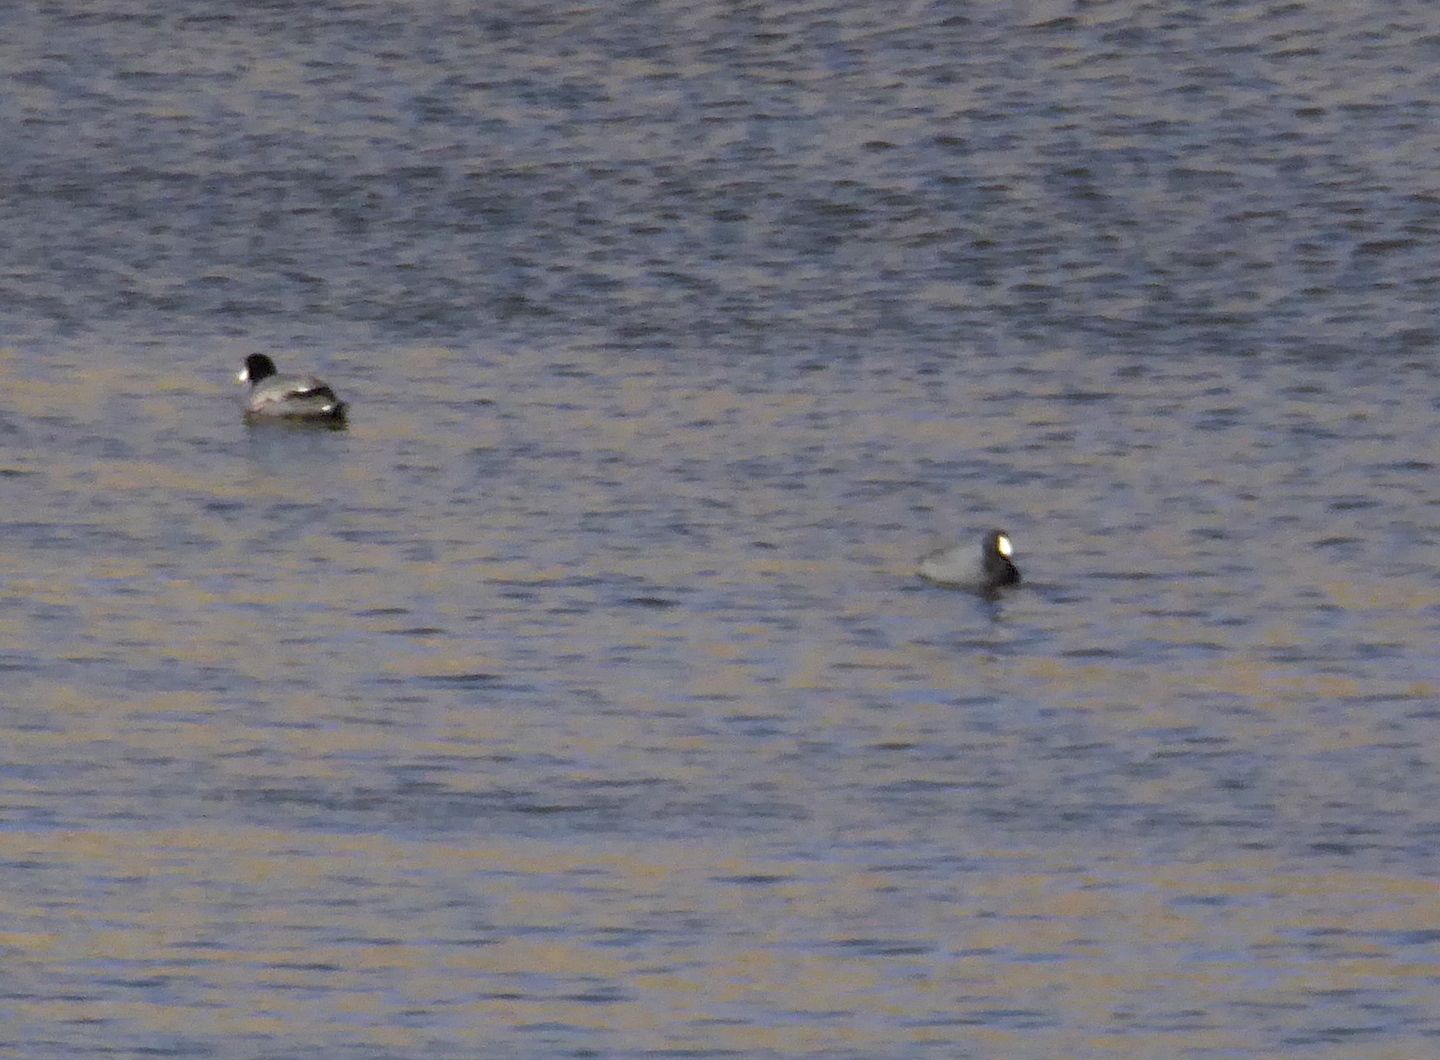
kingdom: Animalia
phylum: Chordata
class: Aves
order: Gruiformes
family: Rallidae
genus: Fulica
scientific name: Fulica americana
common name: American coot
